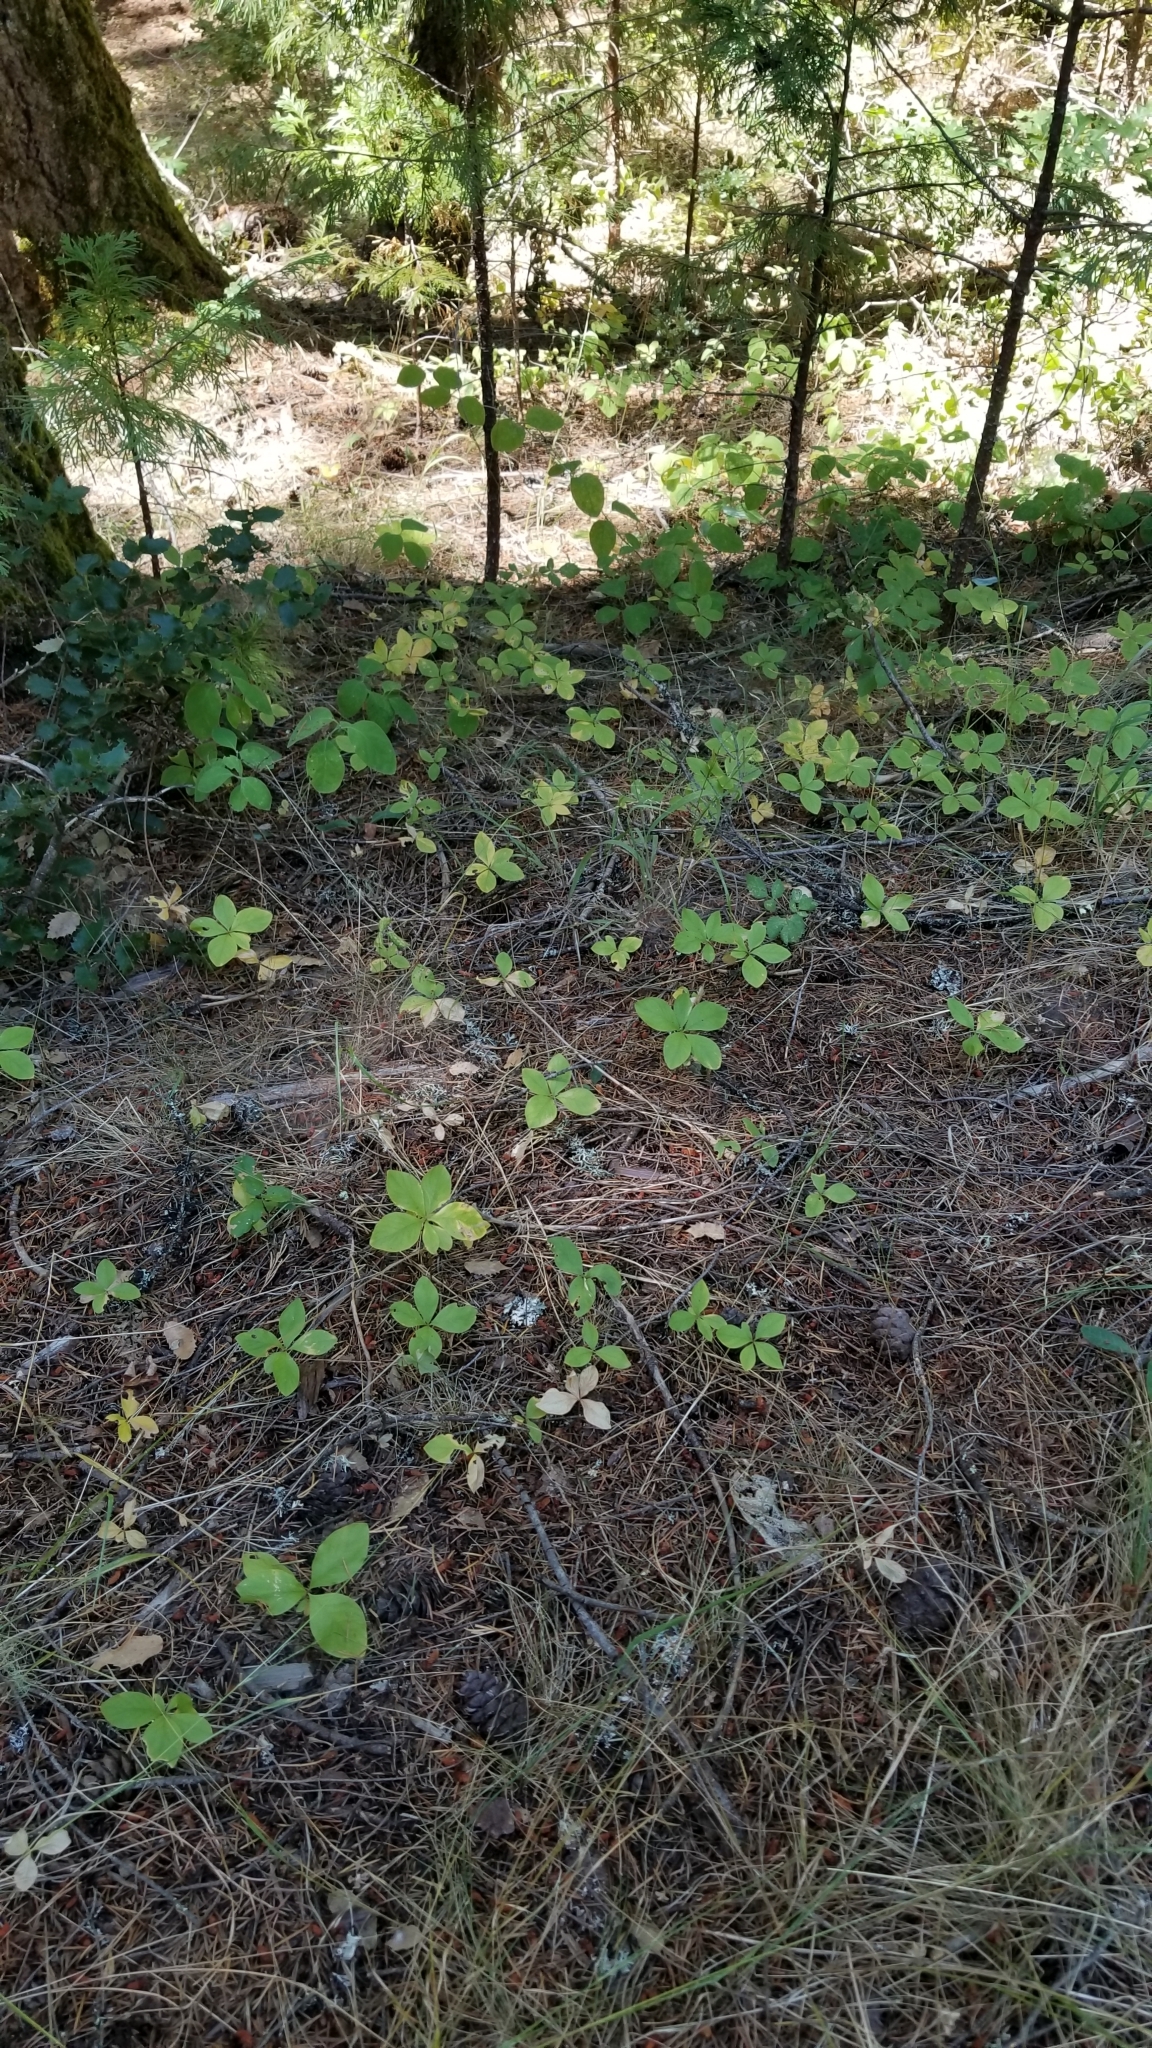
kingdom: Plantae
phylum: Tracheophyta
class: Magnoliopsida
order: Ericales
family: Primulaceae
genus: Lysimachia
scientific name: Lysimachia latifolia
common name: Pacific starflower
